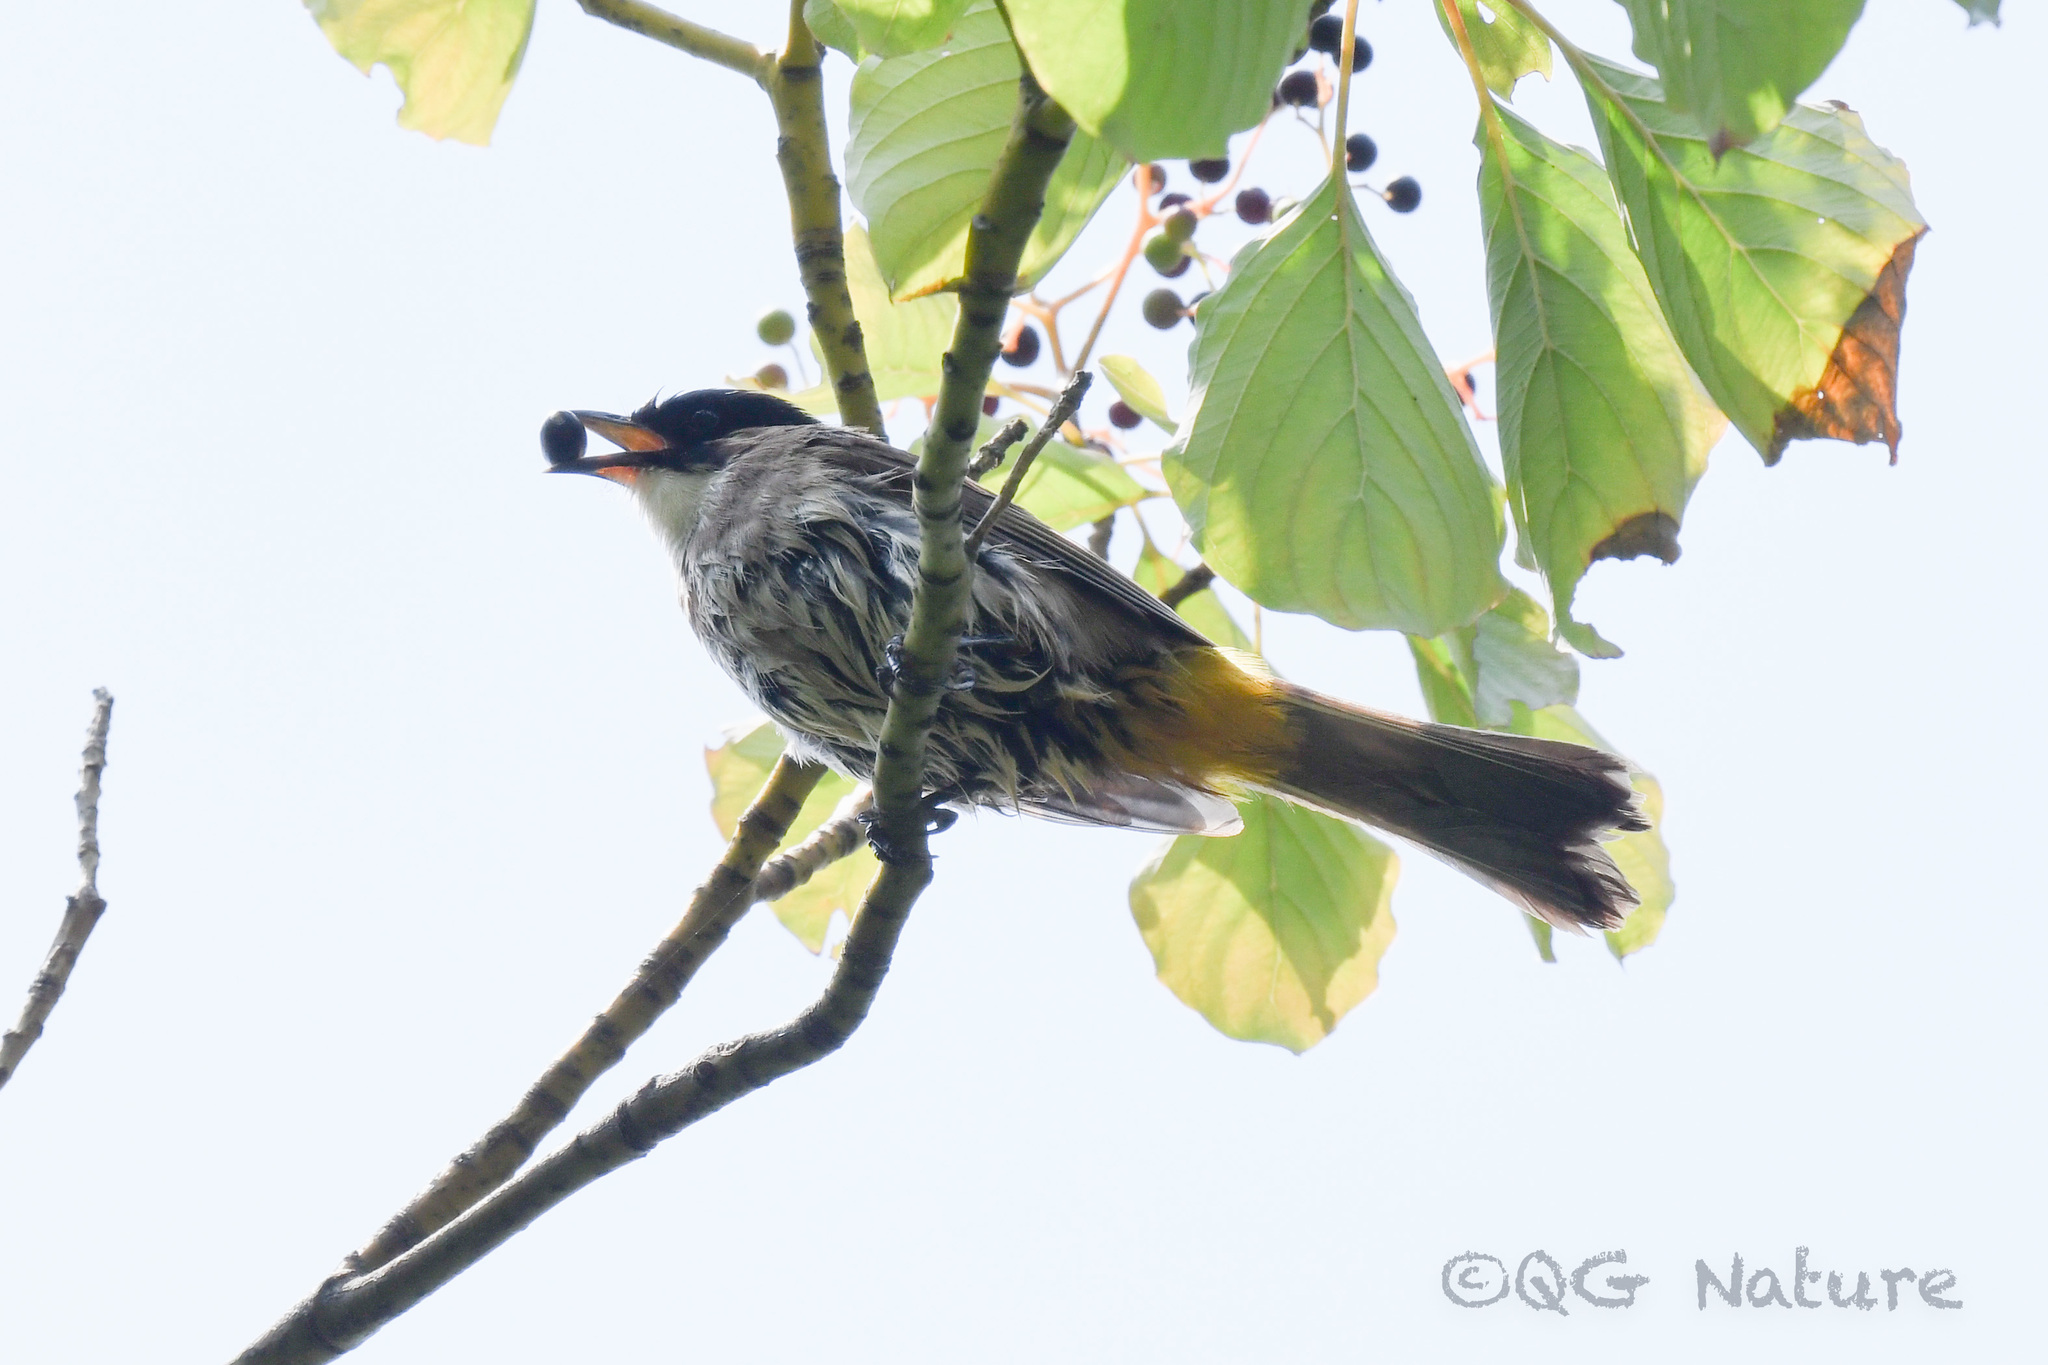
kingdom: Animalia
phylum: Chordata
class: Aves
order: Passeriformes
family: Pycnonotidae
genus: Pycnonotus
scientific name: Pycnonotus xanthorrhous
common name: Brown-breasted bulbul
